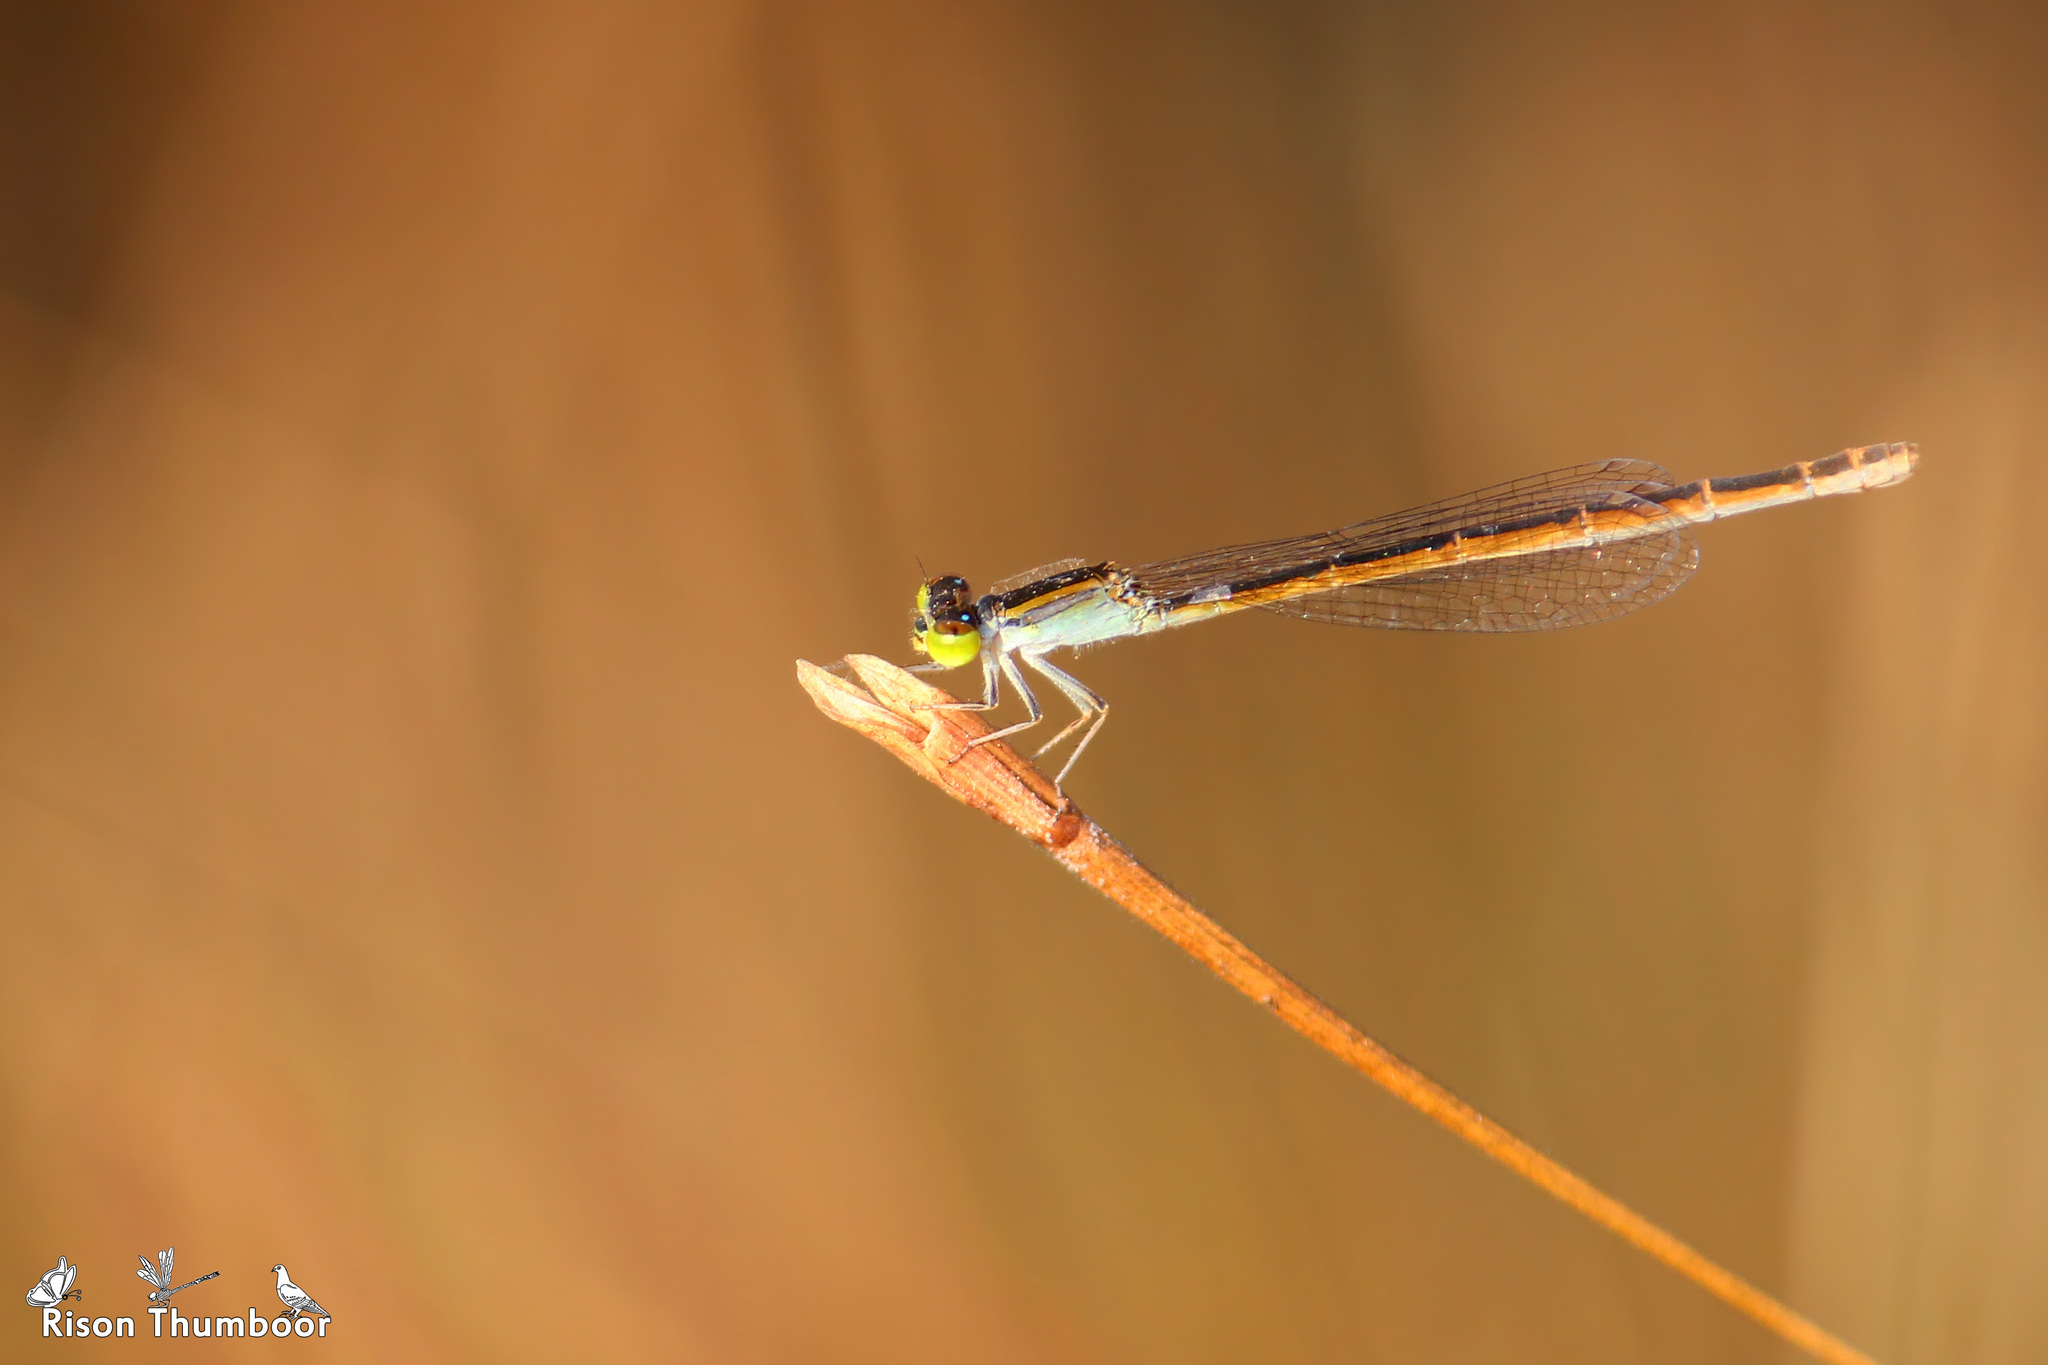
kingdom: Animalia
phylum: Arthropoda
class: Insecta
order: Odonata
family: Coenagrionidae
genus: Ischnura
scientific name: Ischnura rubilio
